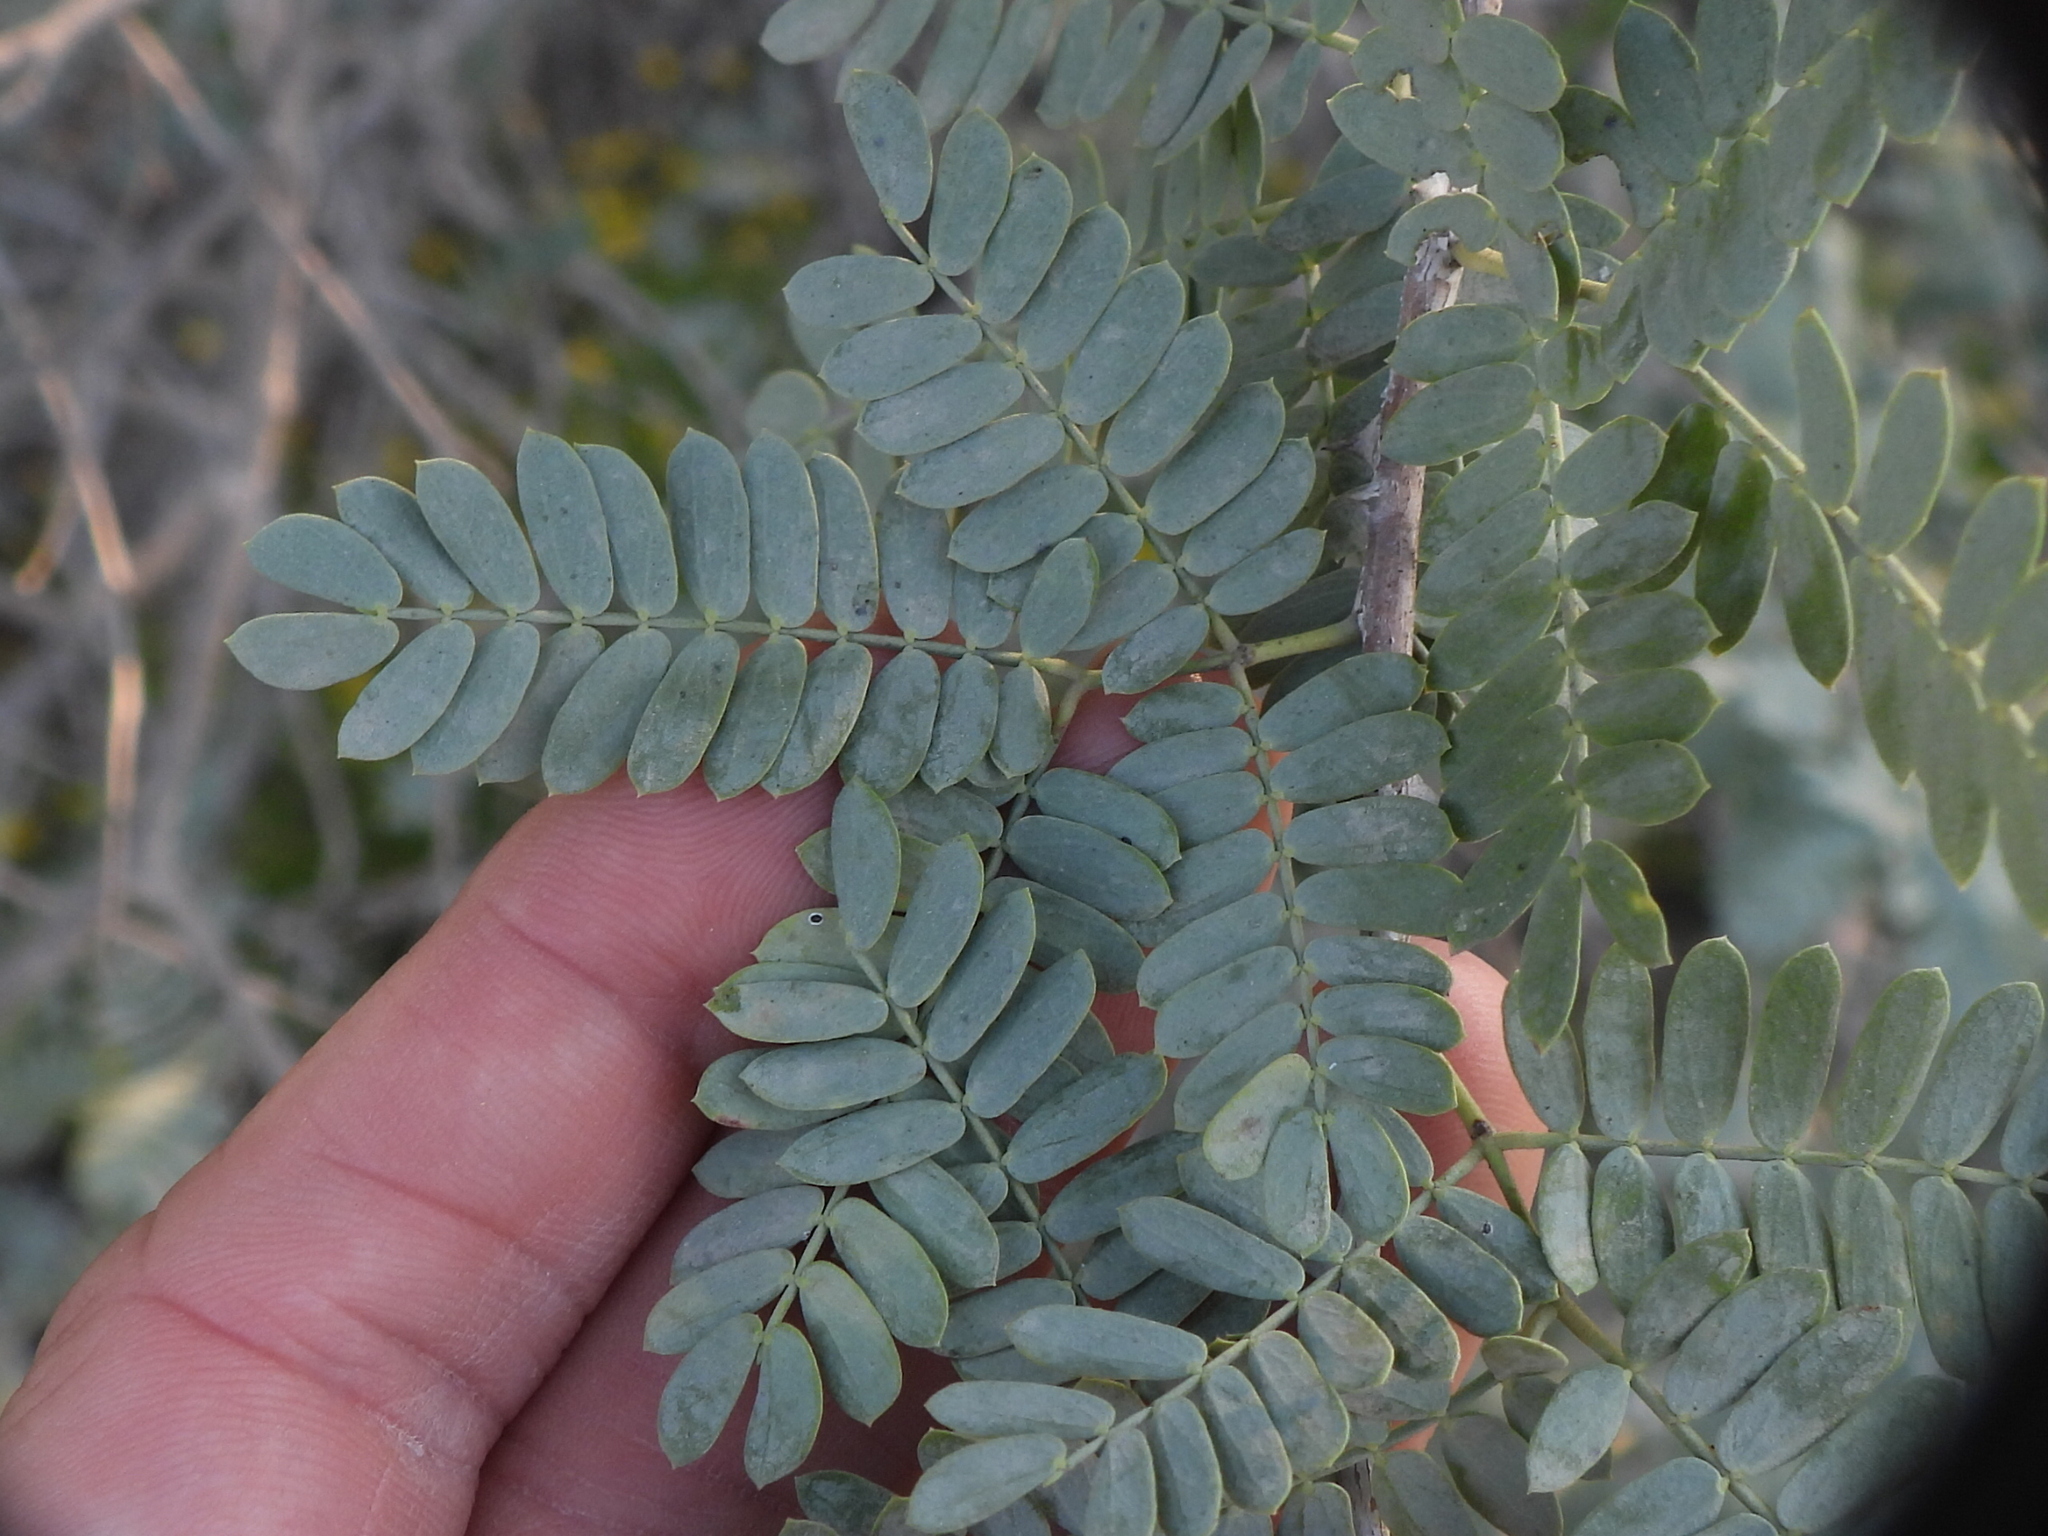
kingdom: Plantae
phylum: Tracheophyta
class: Magnoliopsida
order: Fabales
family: Fabaceae
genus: Prosopis
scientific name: Prosopis cineraria
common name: Jandi
